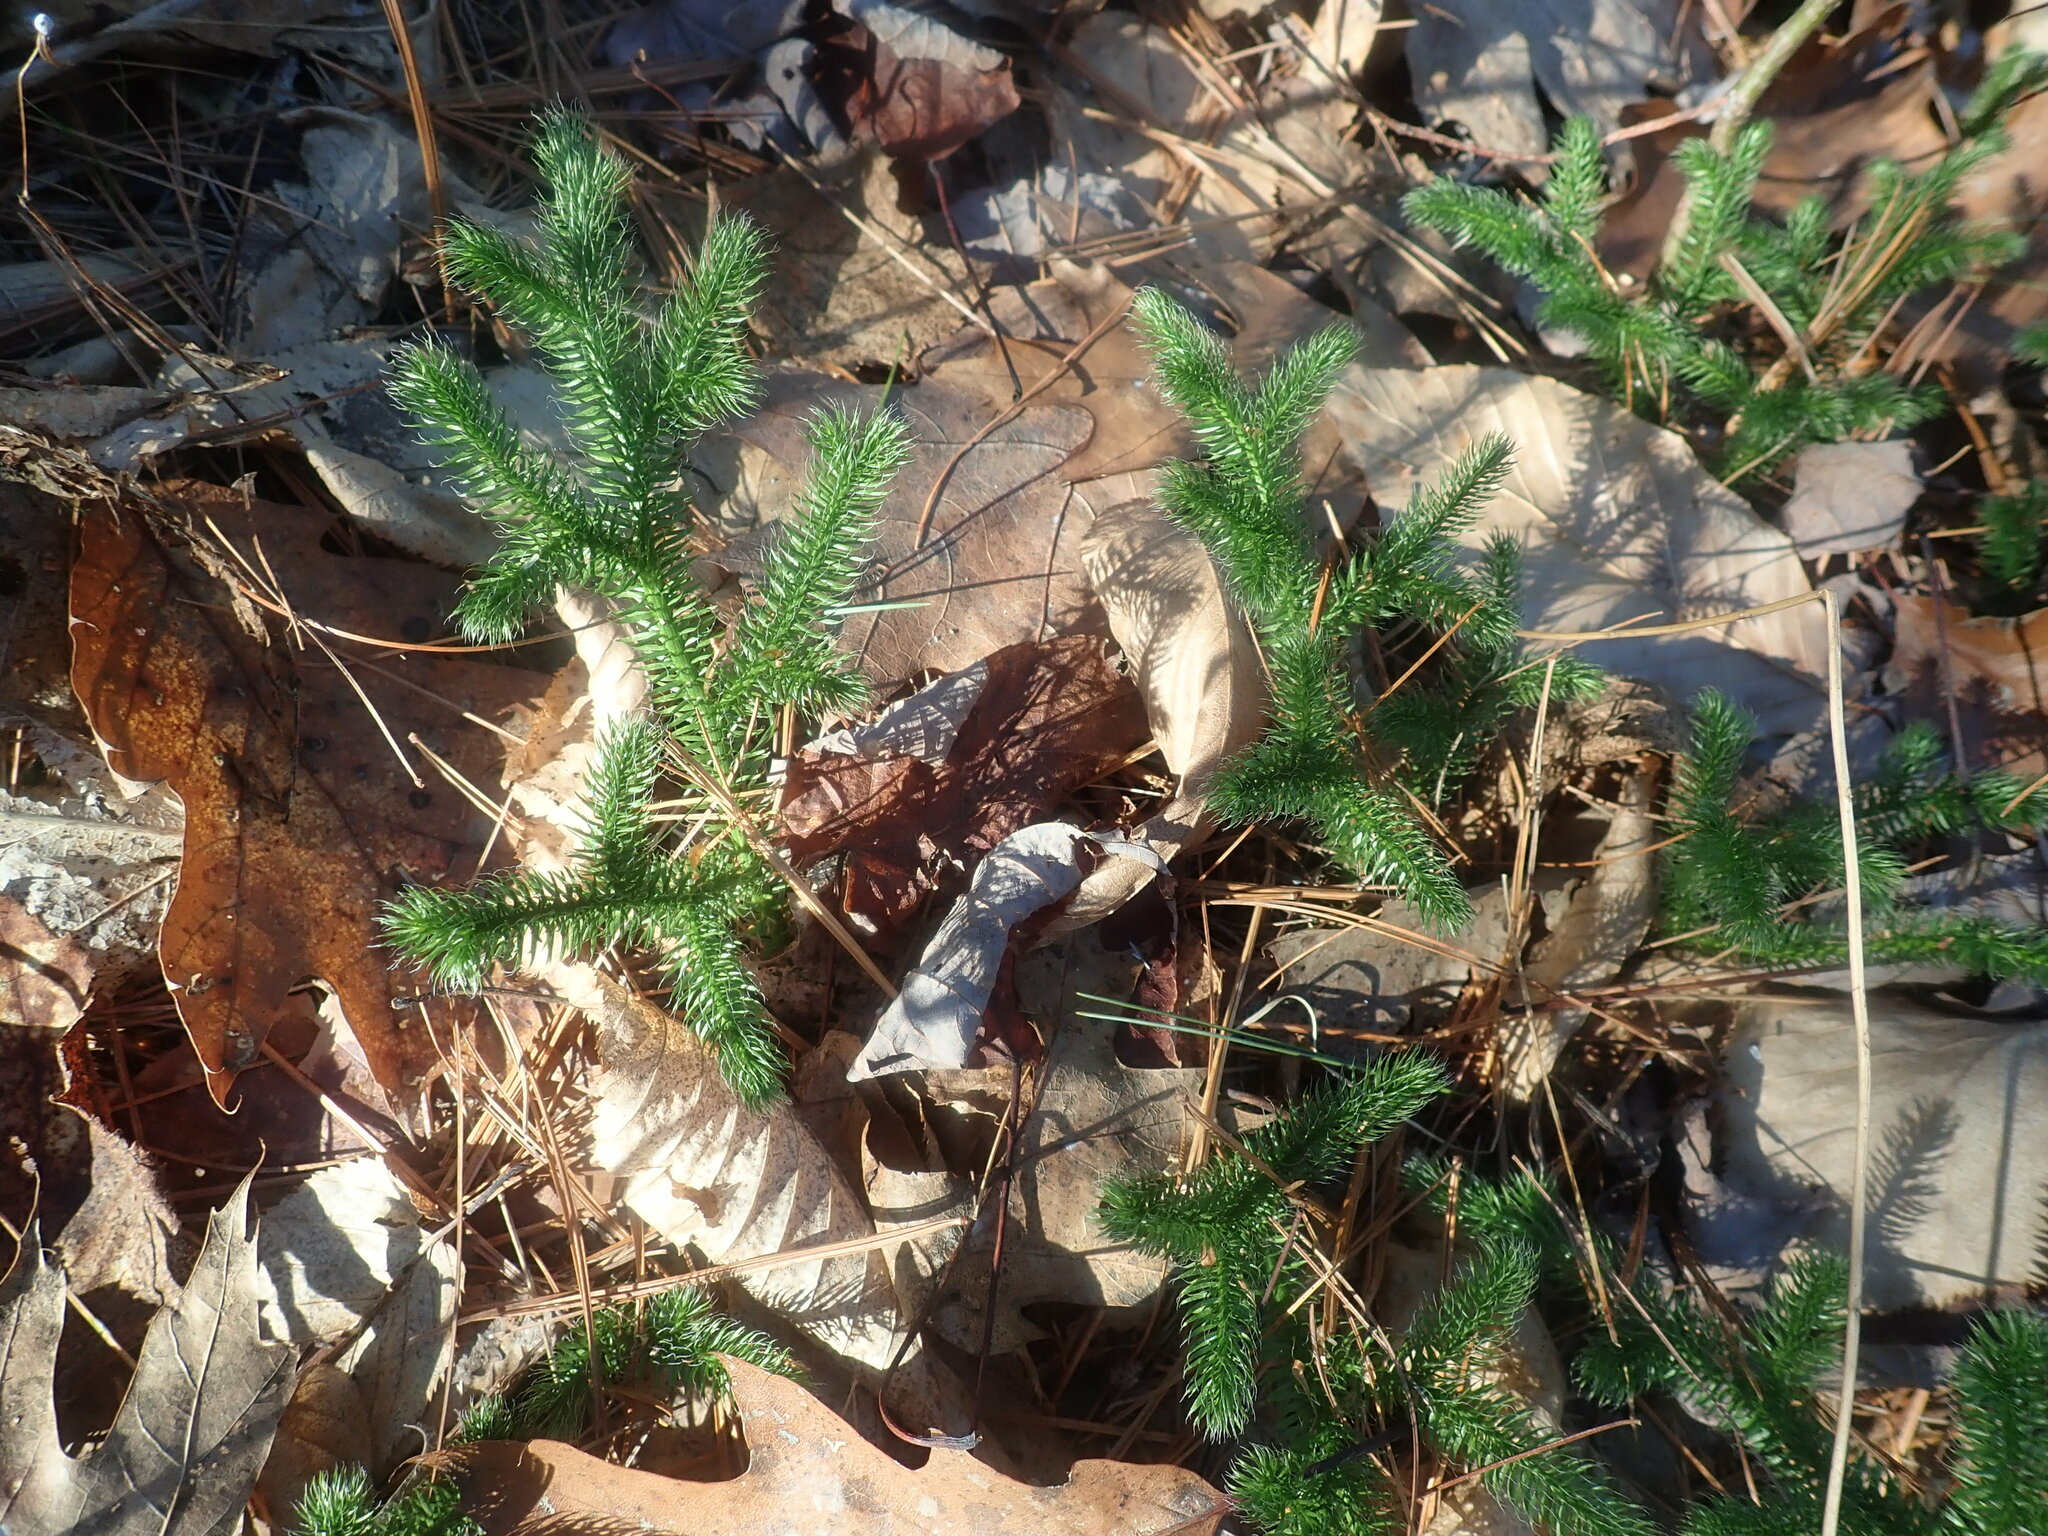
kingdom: Plantae
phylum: Tracheophyta
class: Lycopodiopsida
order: Lycopodiales
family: Lycopodiaceae
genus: Lycopodium
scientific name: Lycopodium clavatum
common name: Stag's-horn clubmoss
